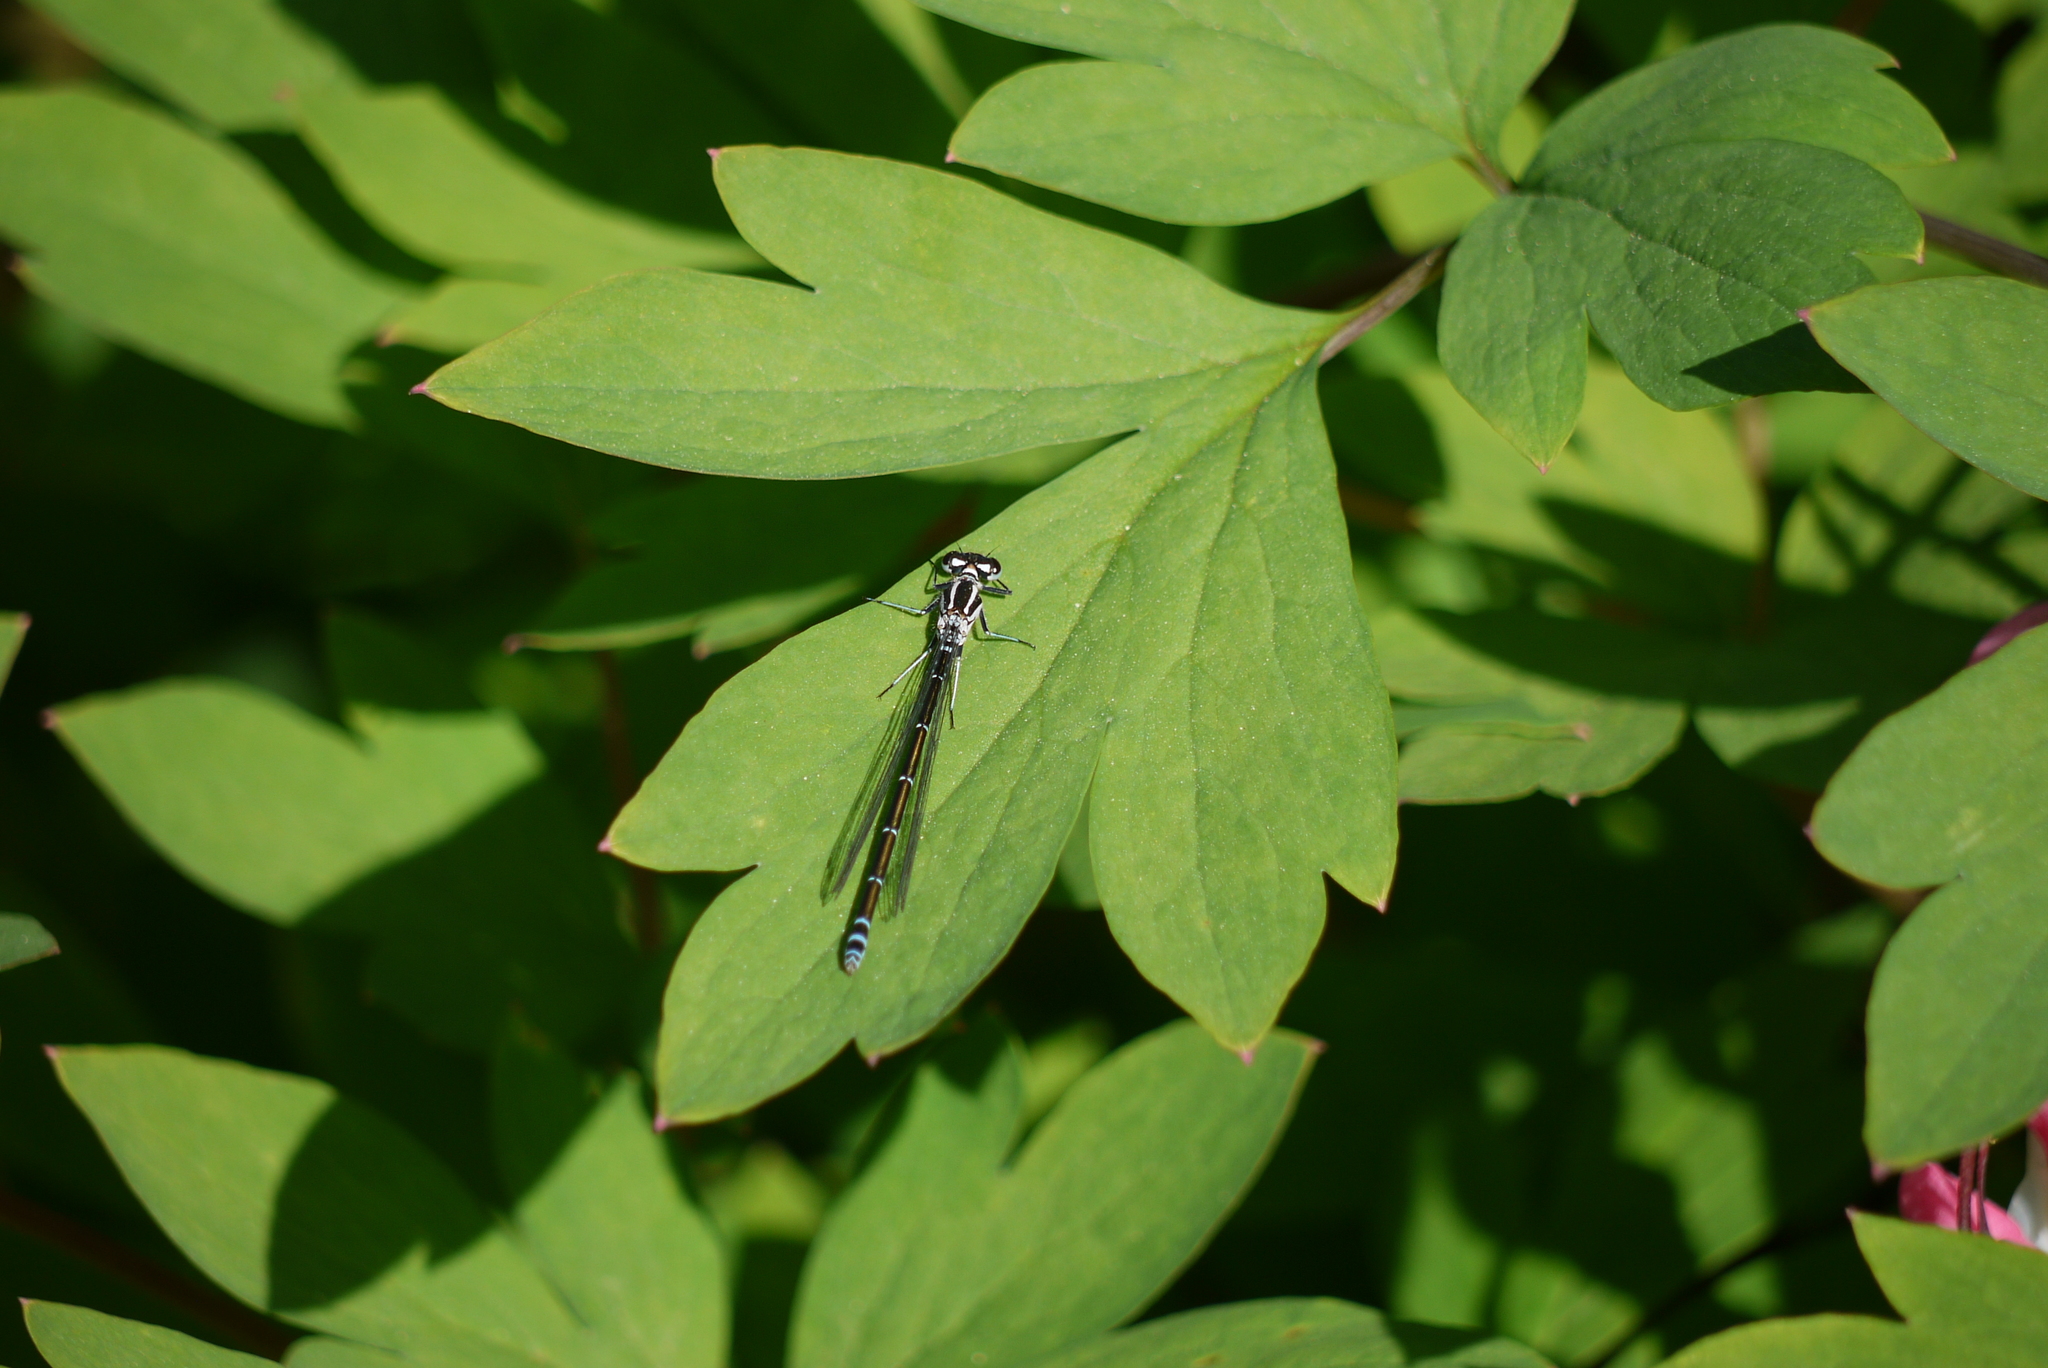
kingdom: Animalia
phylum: Arthropoda
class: Insecta
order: Odonata
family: Coenagrionidae
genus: Coenagrion
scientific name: Coenagrion puella
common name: Azure damselfly
